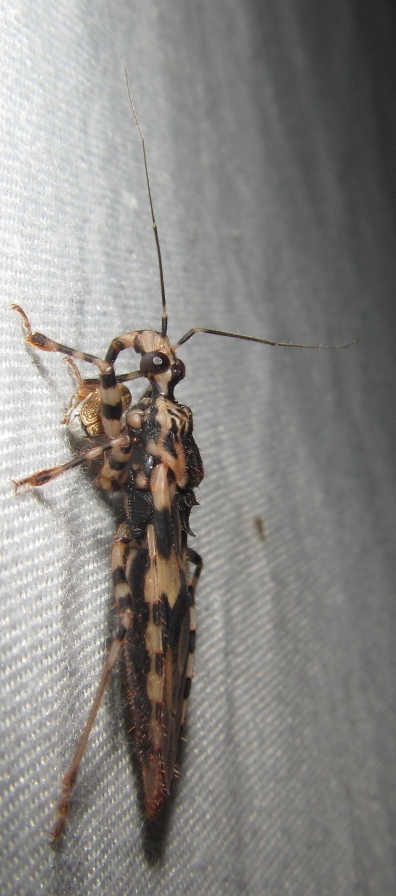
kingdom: Animalia
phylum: Arthropoda
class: Insecta
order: Hemiptera
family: Reduviidae
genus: Gnistus
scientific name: Gnistus fuscoirroratus
